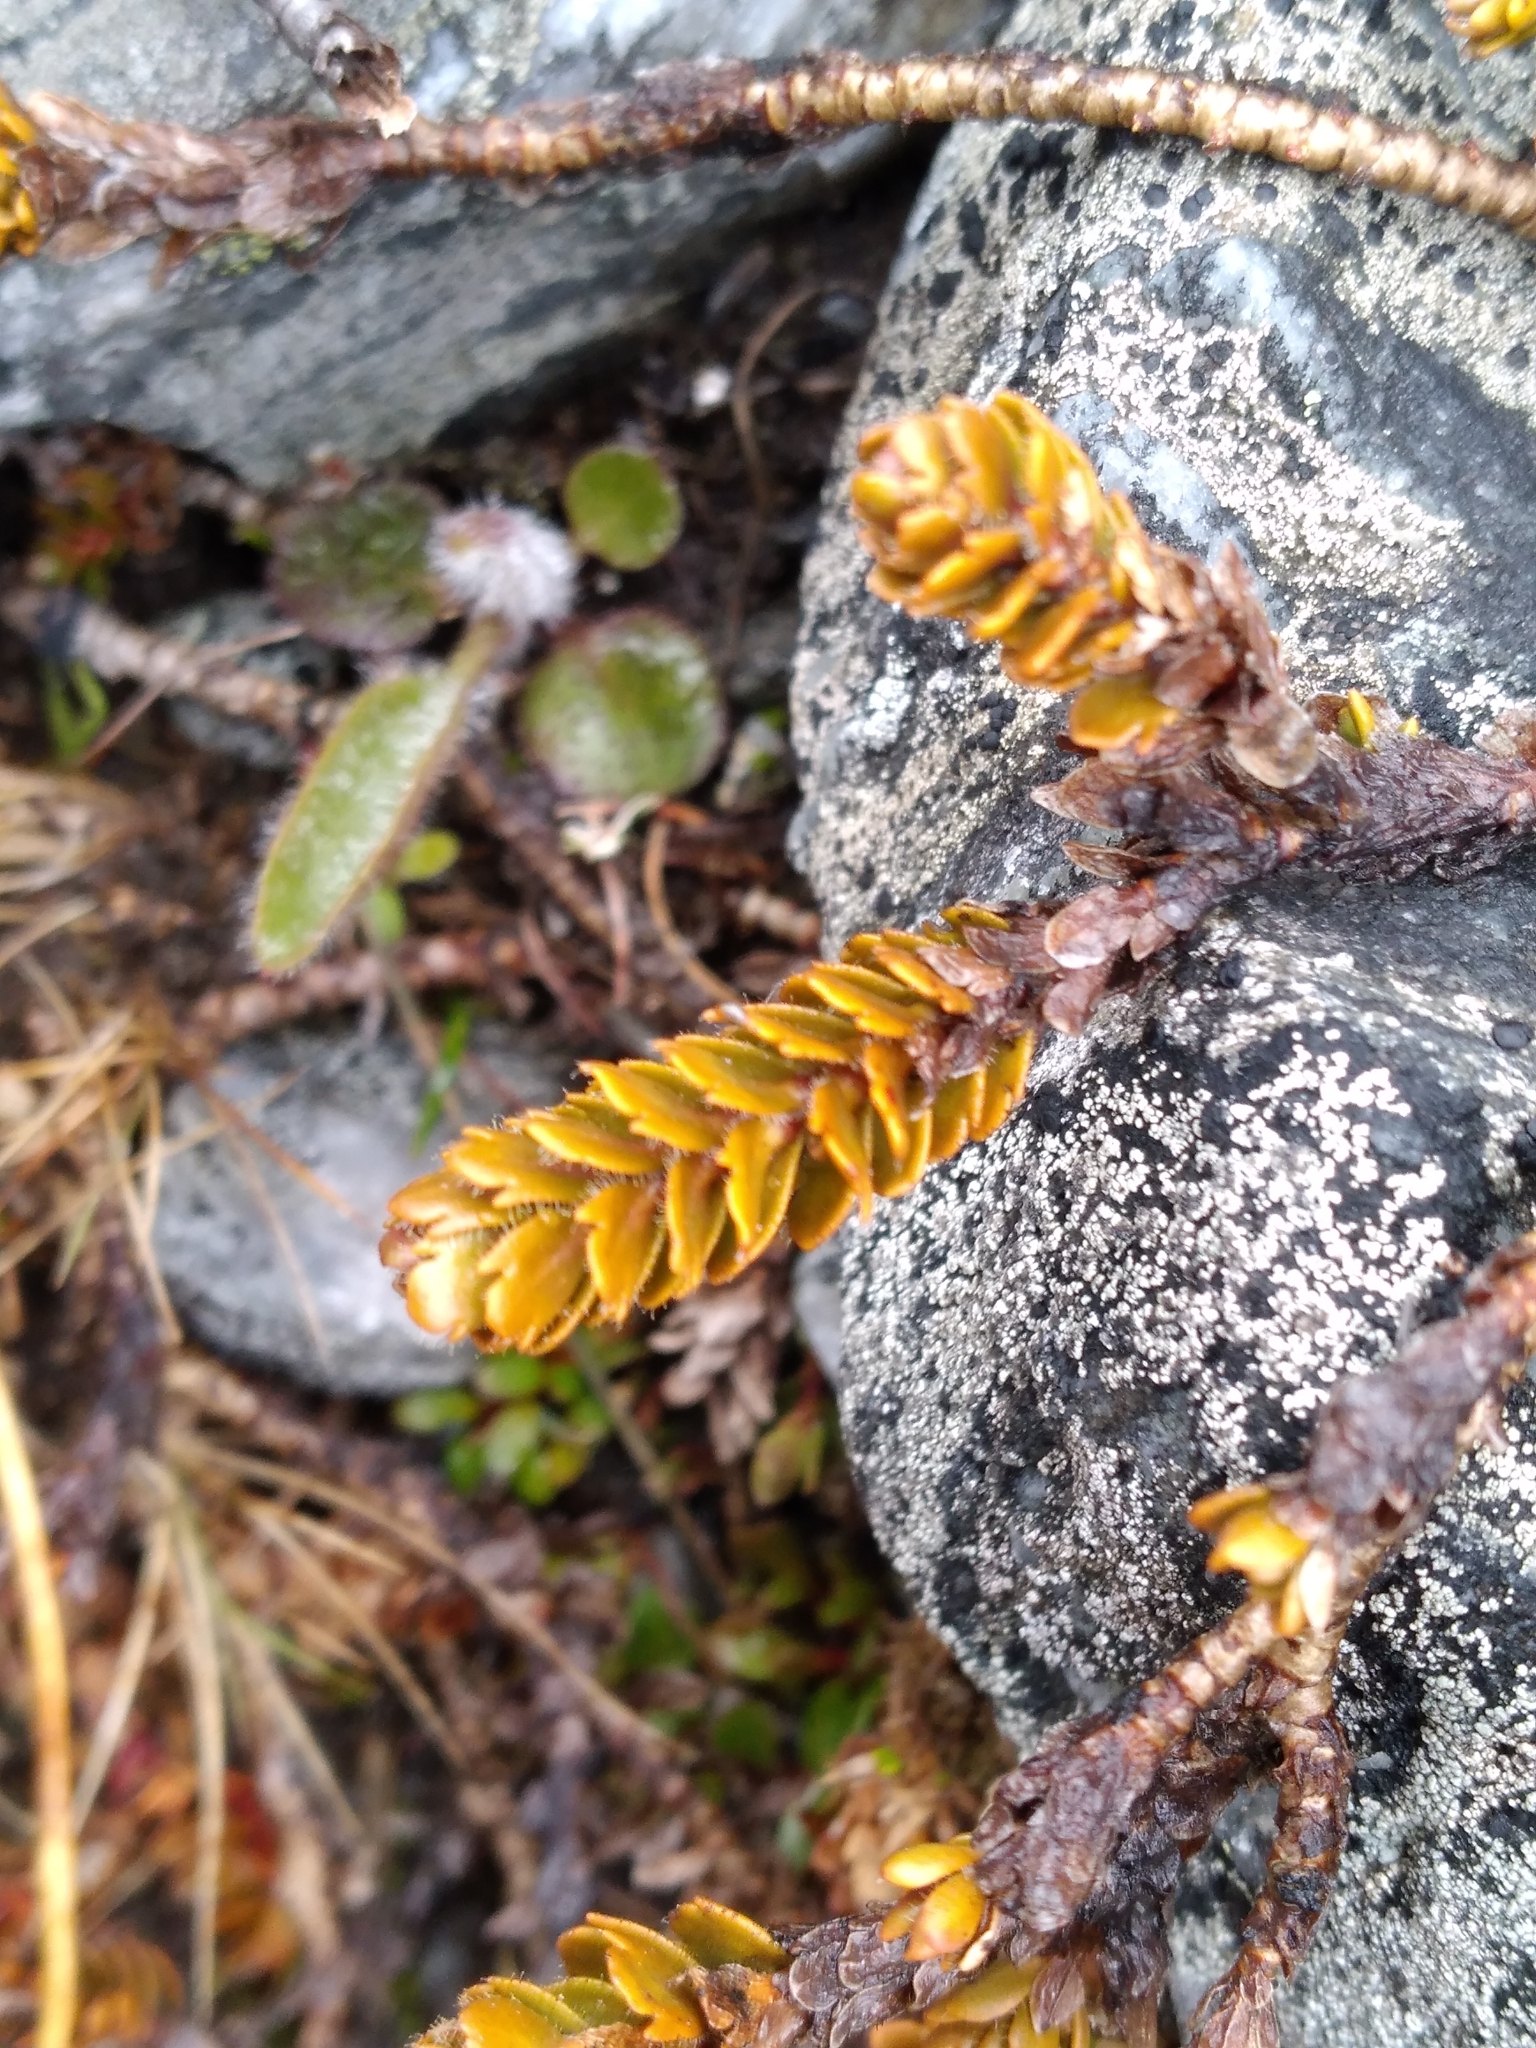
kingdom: Plantae
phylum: Tracheophyta
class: Magnoliopsida
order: Lamiales
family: Plantaginaceae
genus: Veronica
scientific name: Veronica trifida
